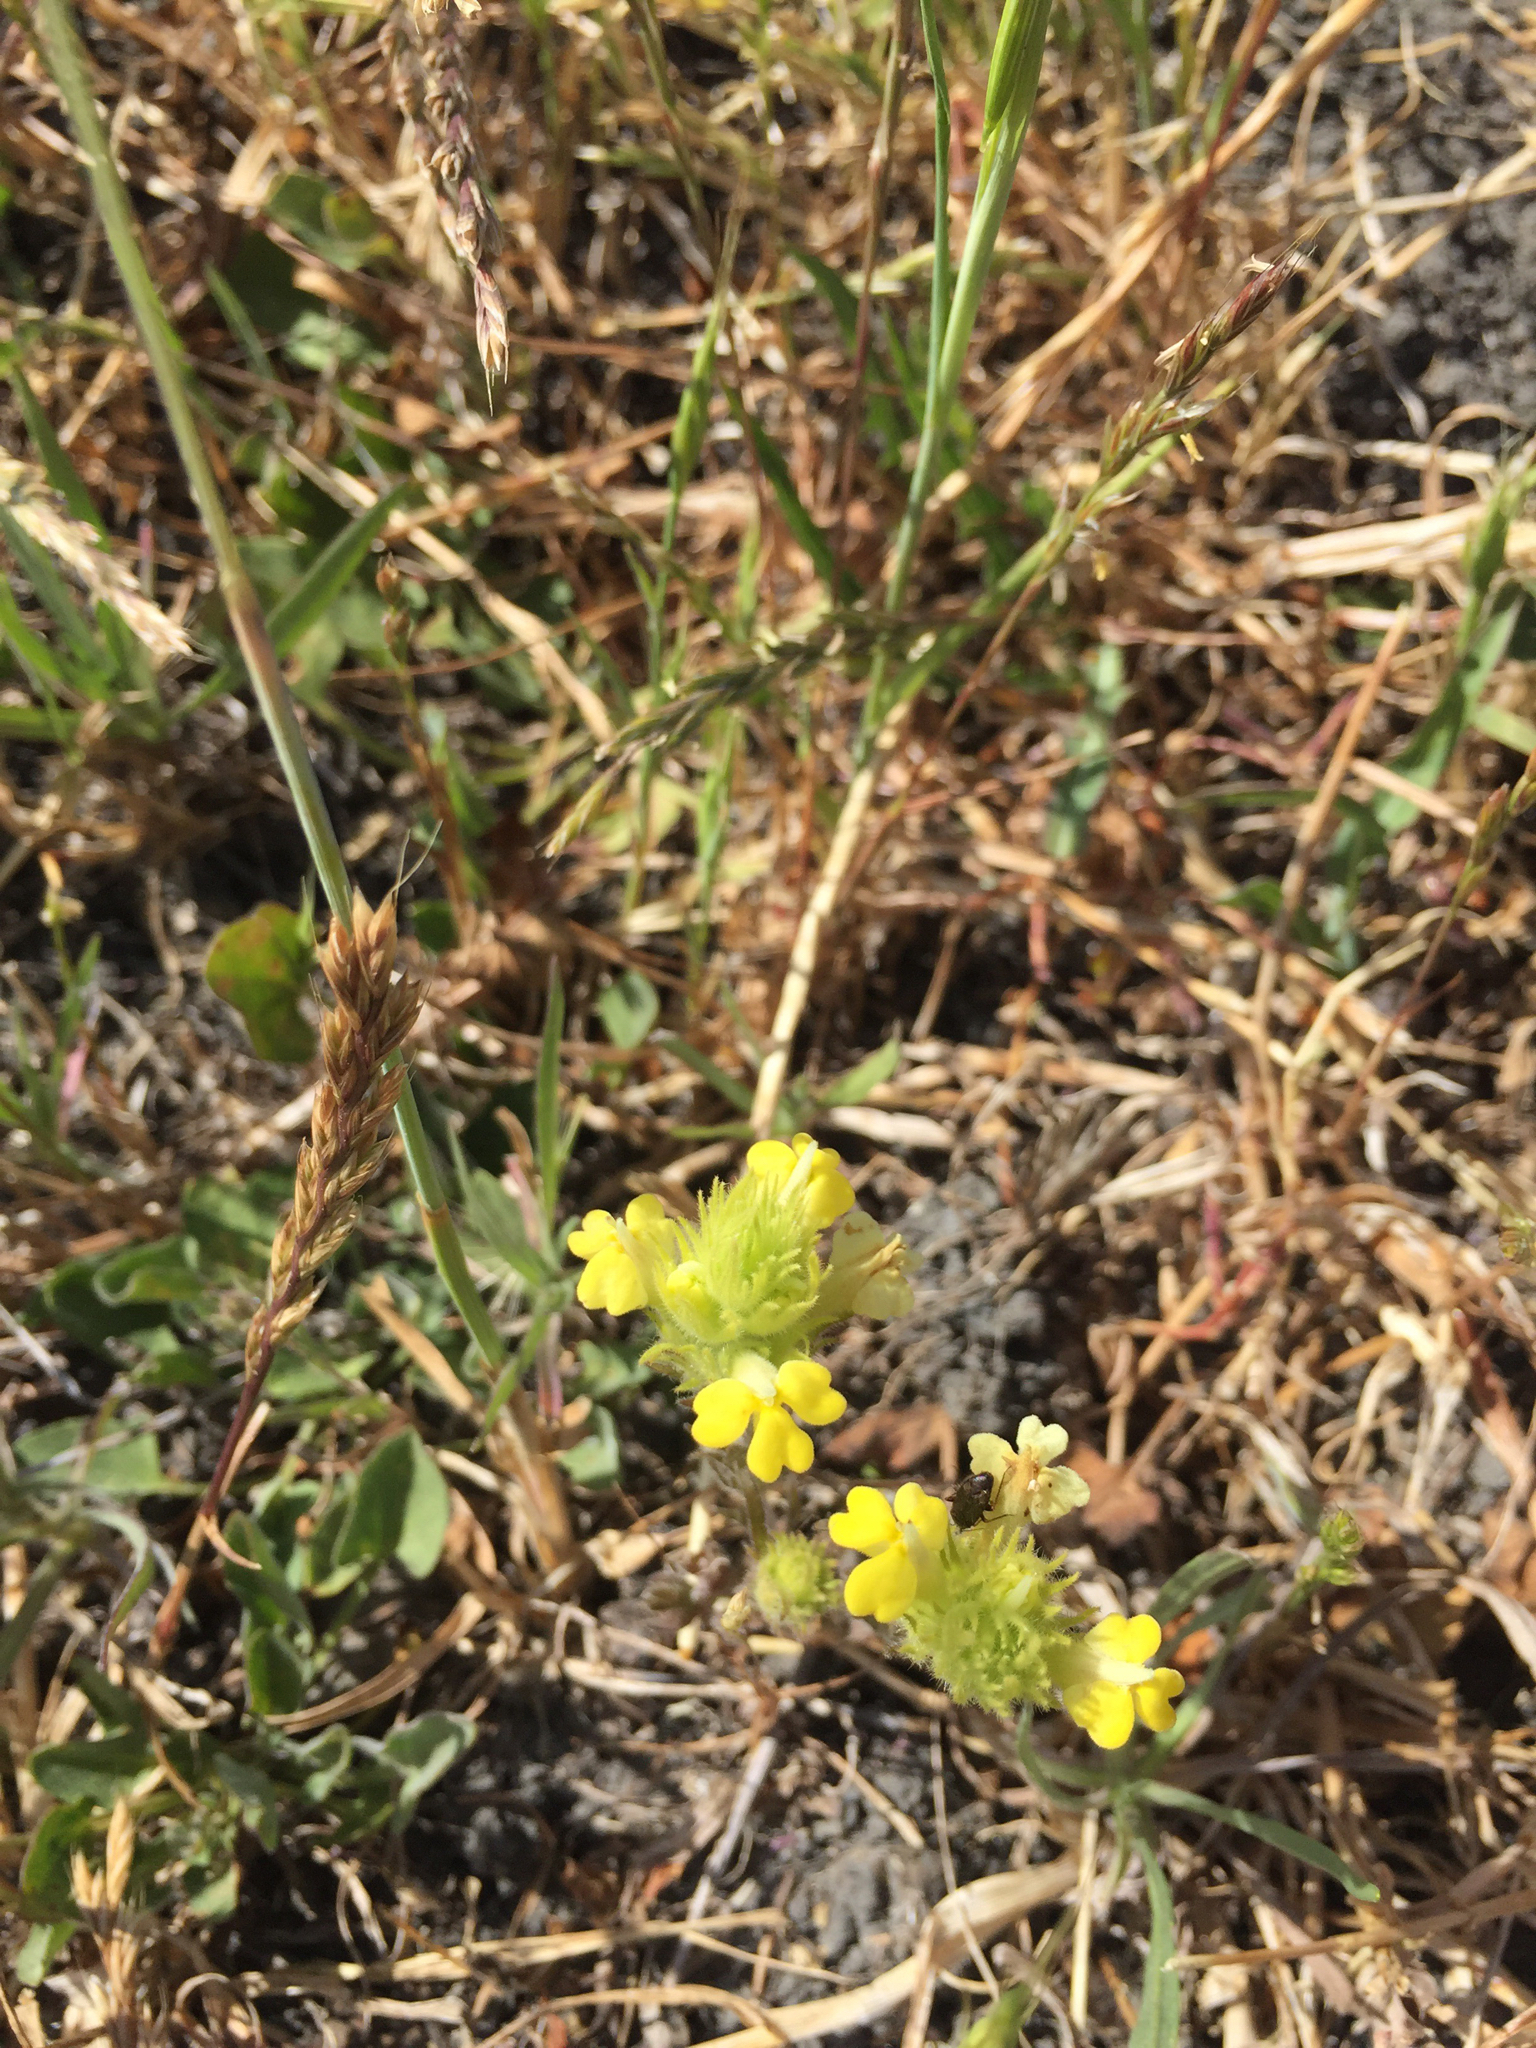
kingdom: Plantae
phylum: Tracheophyta
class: Magnoliopsida
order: Lamiales
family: Orobanchaceae
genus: Castilleja
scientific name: Castilleja rubicundula
